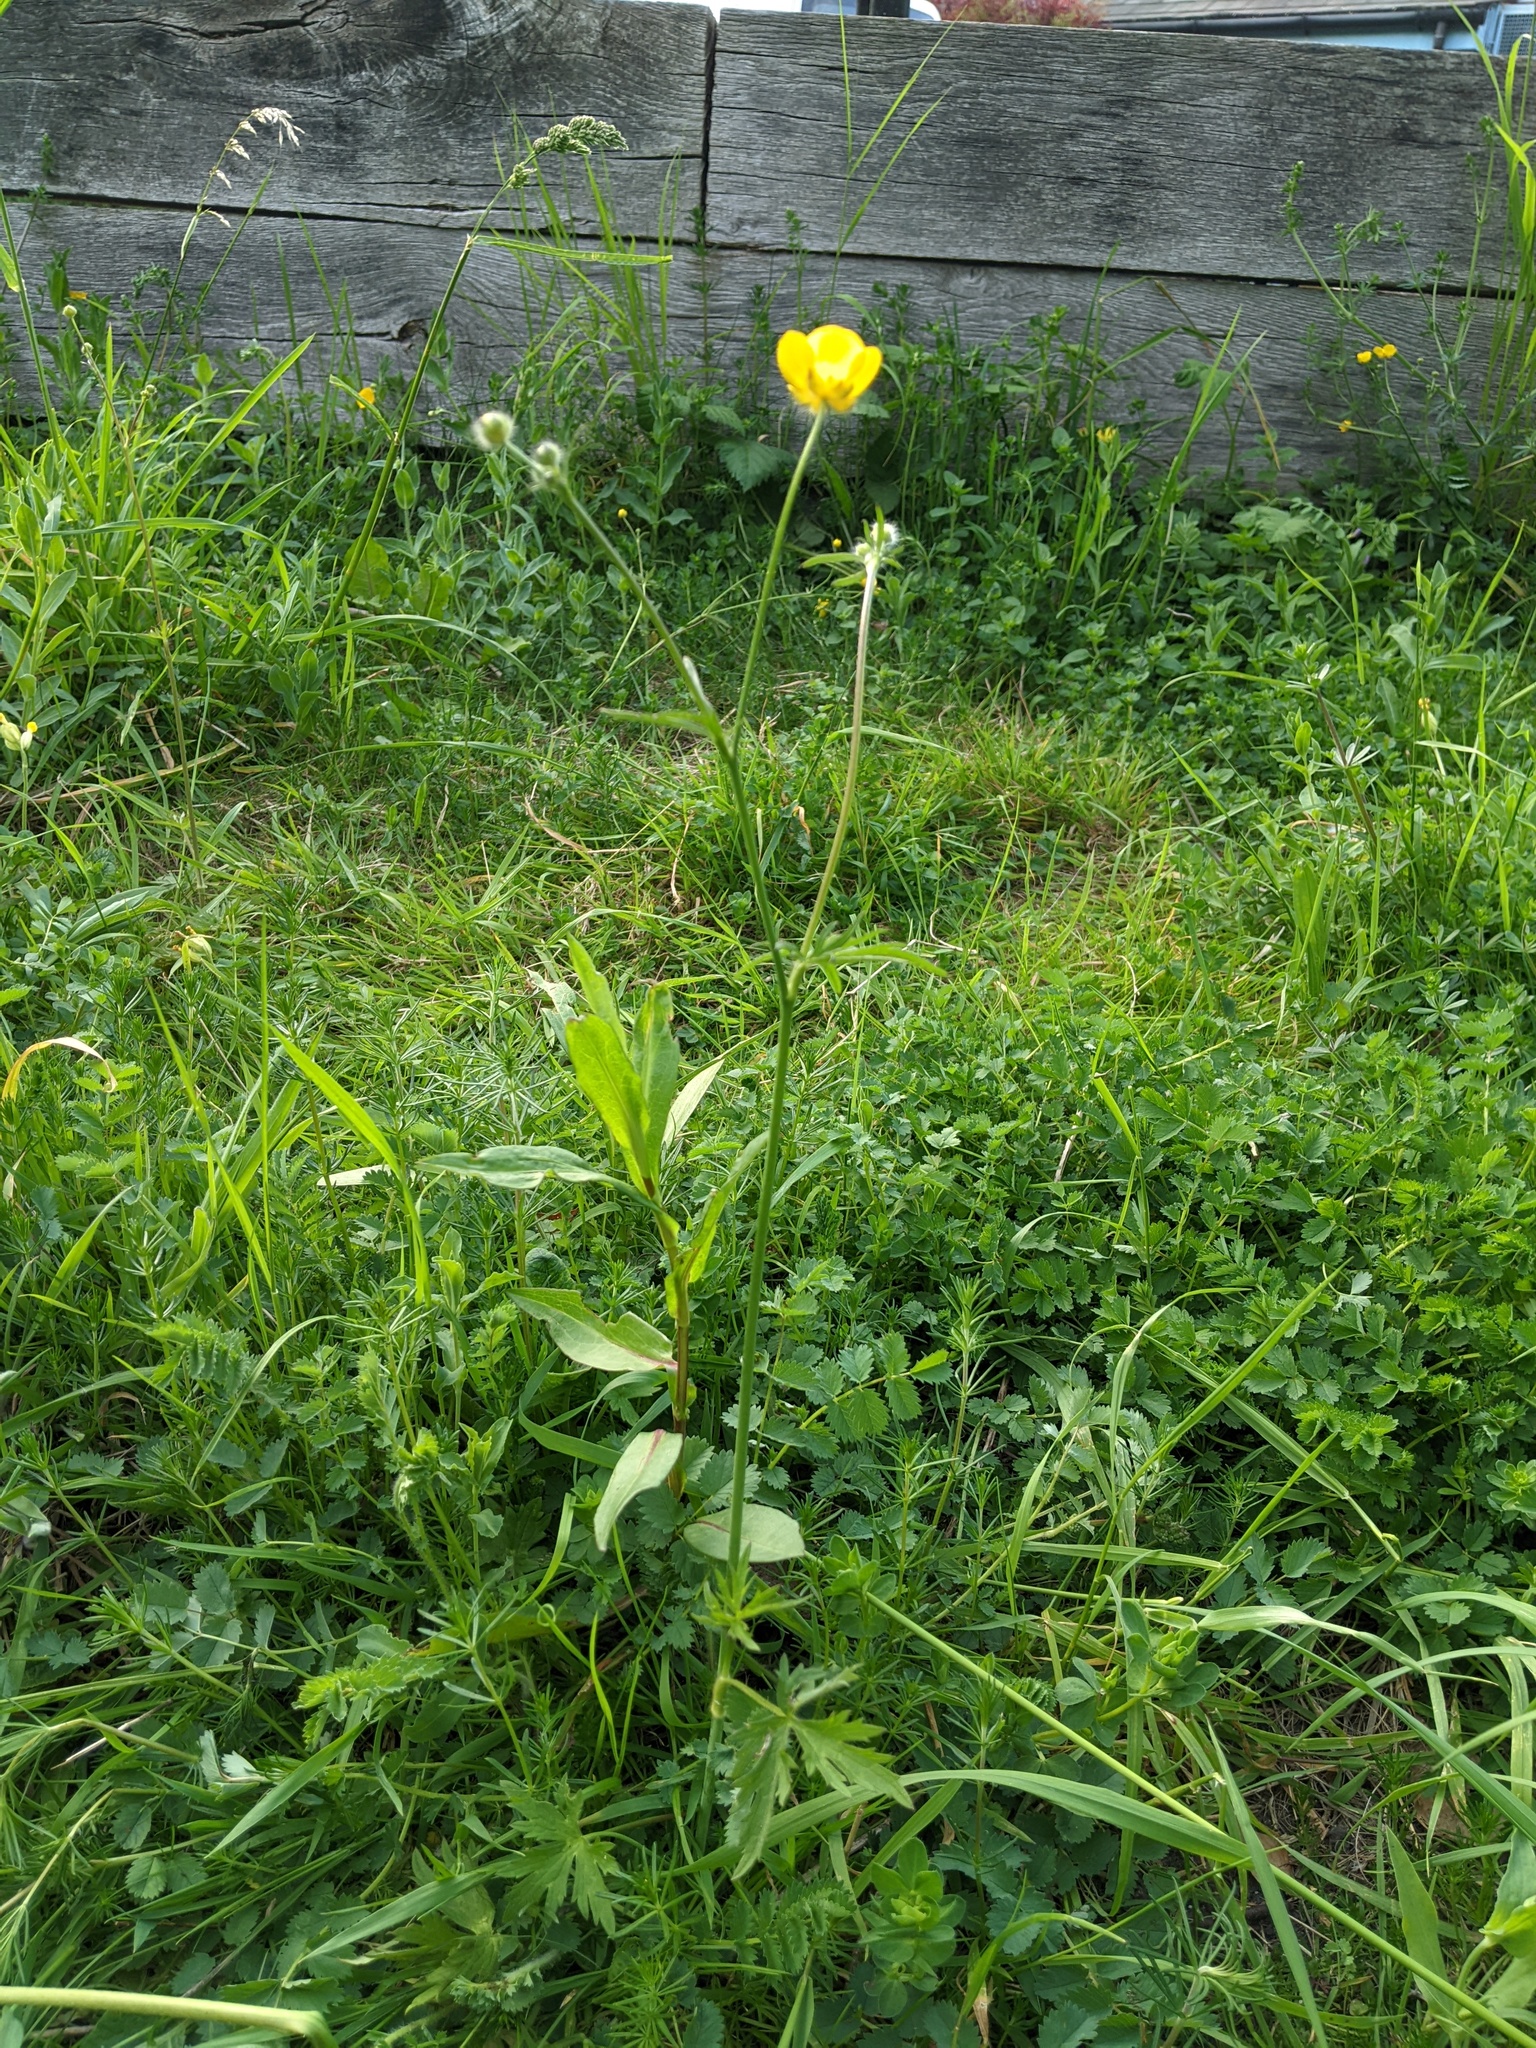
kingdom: Plantae
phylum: Tracheophyta
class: Magnoliopsida
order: Ranunculales
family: Ranunculaceae
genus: Ranunculus
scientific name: Ranunculus acris
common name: Meadow buttercup
